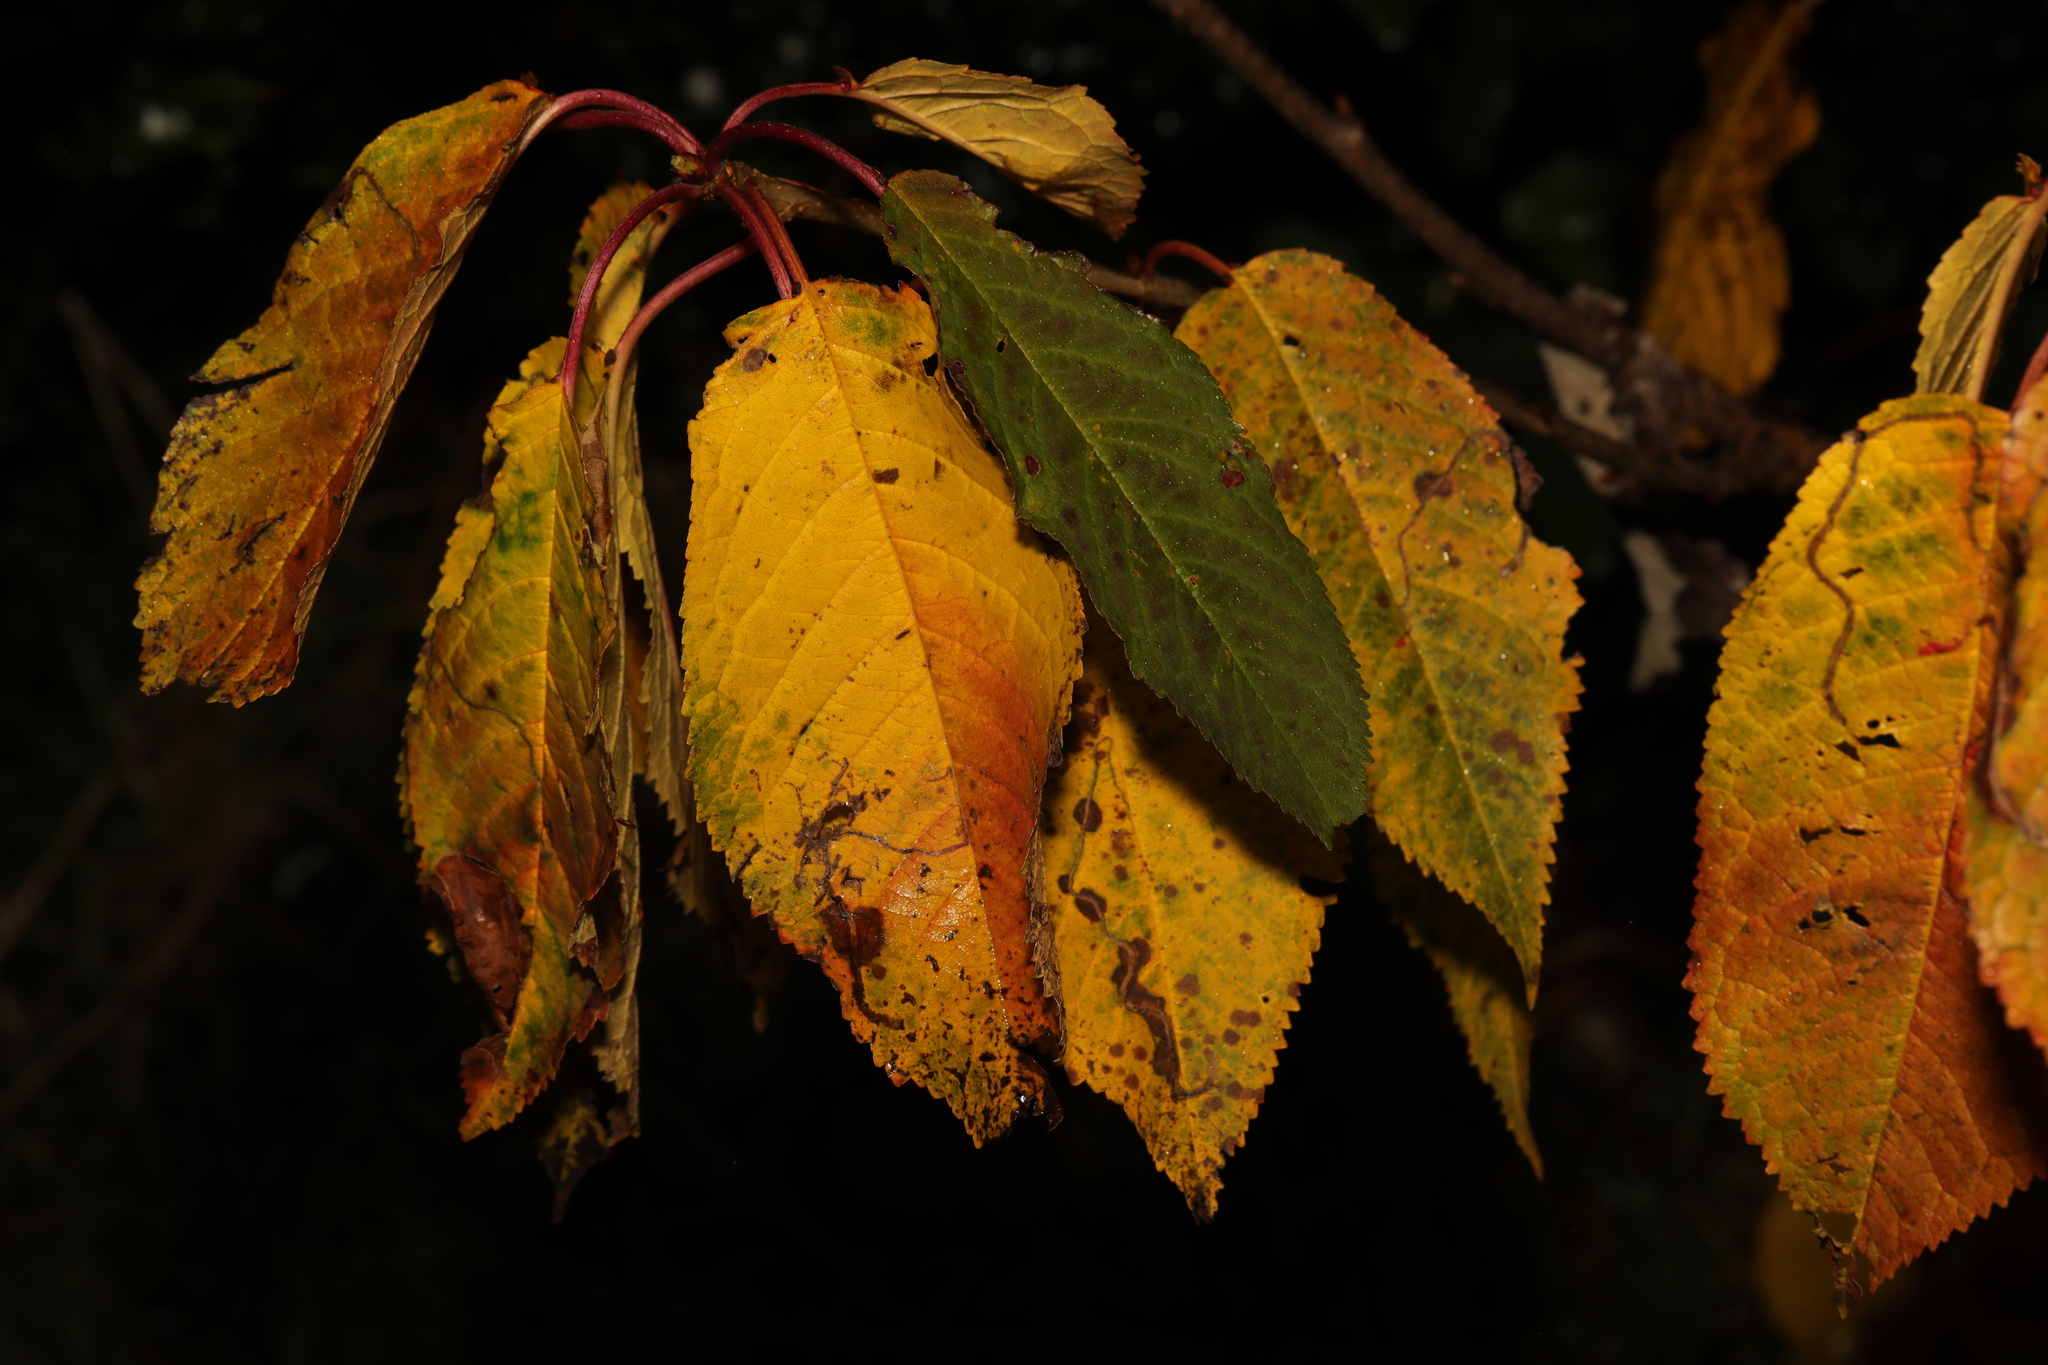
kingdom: Plantae
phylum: Tracheophyta
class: Magnoliopsida
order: Rosales
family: Rosaceae
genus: Prunus
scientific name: Prunus avium
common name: Sweet cherry
